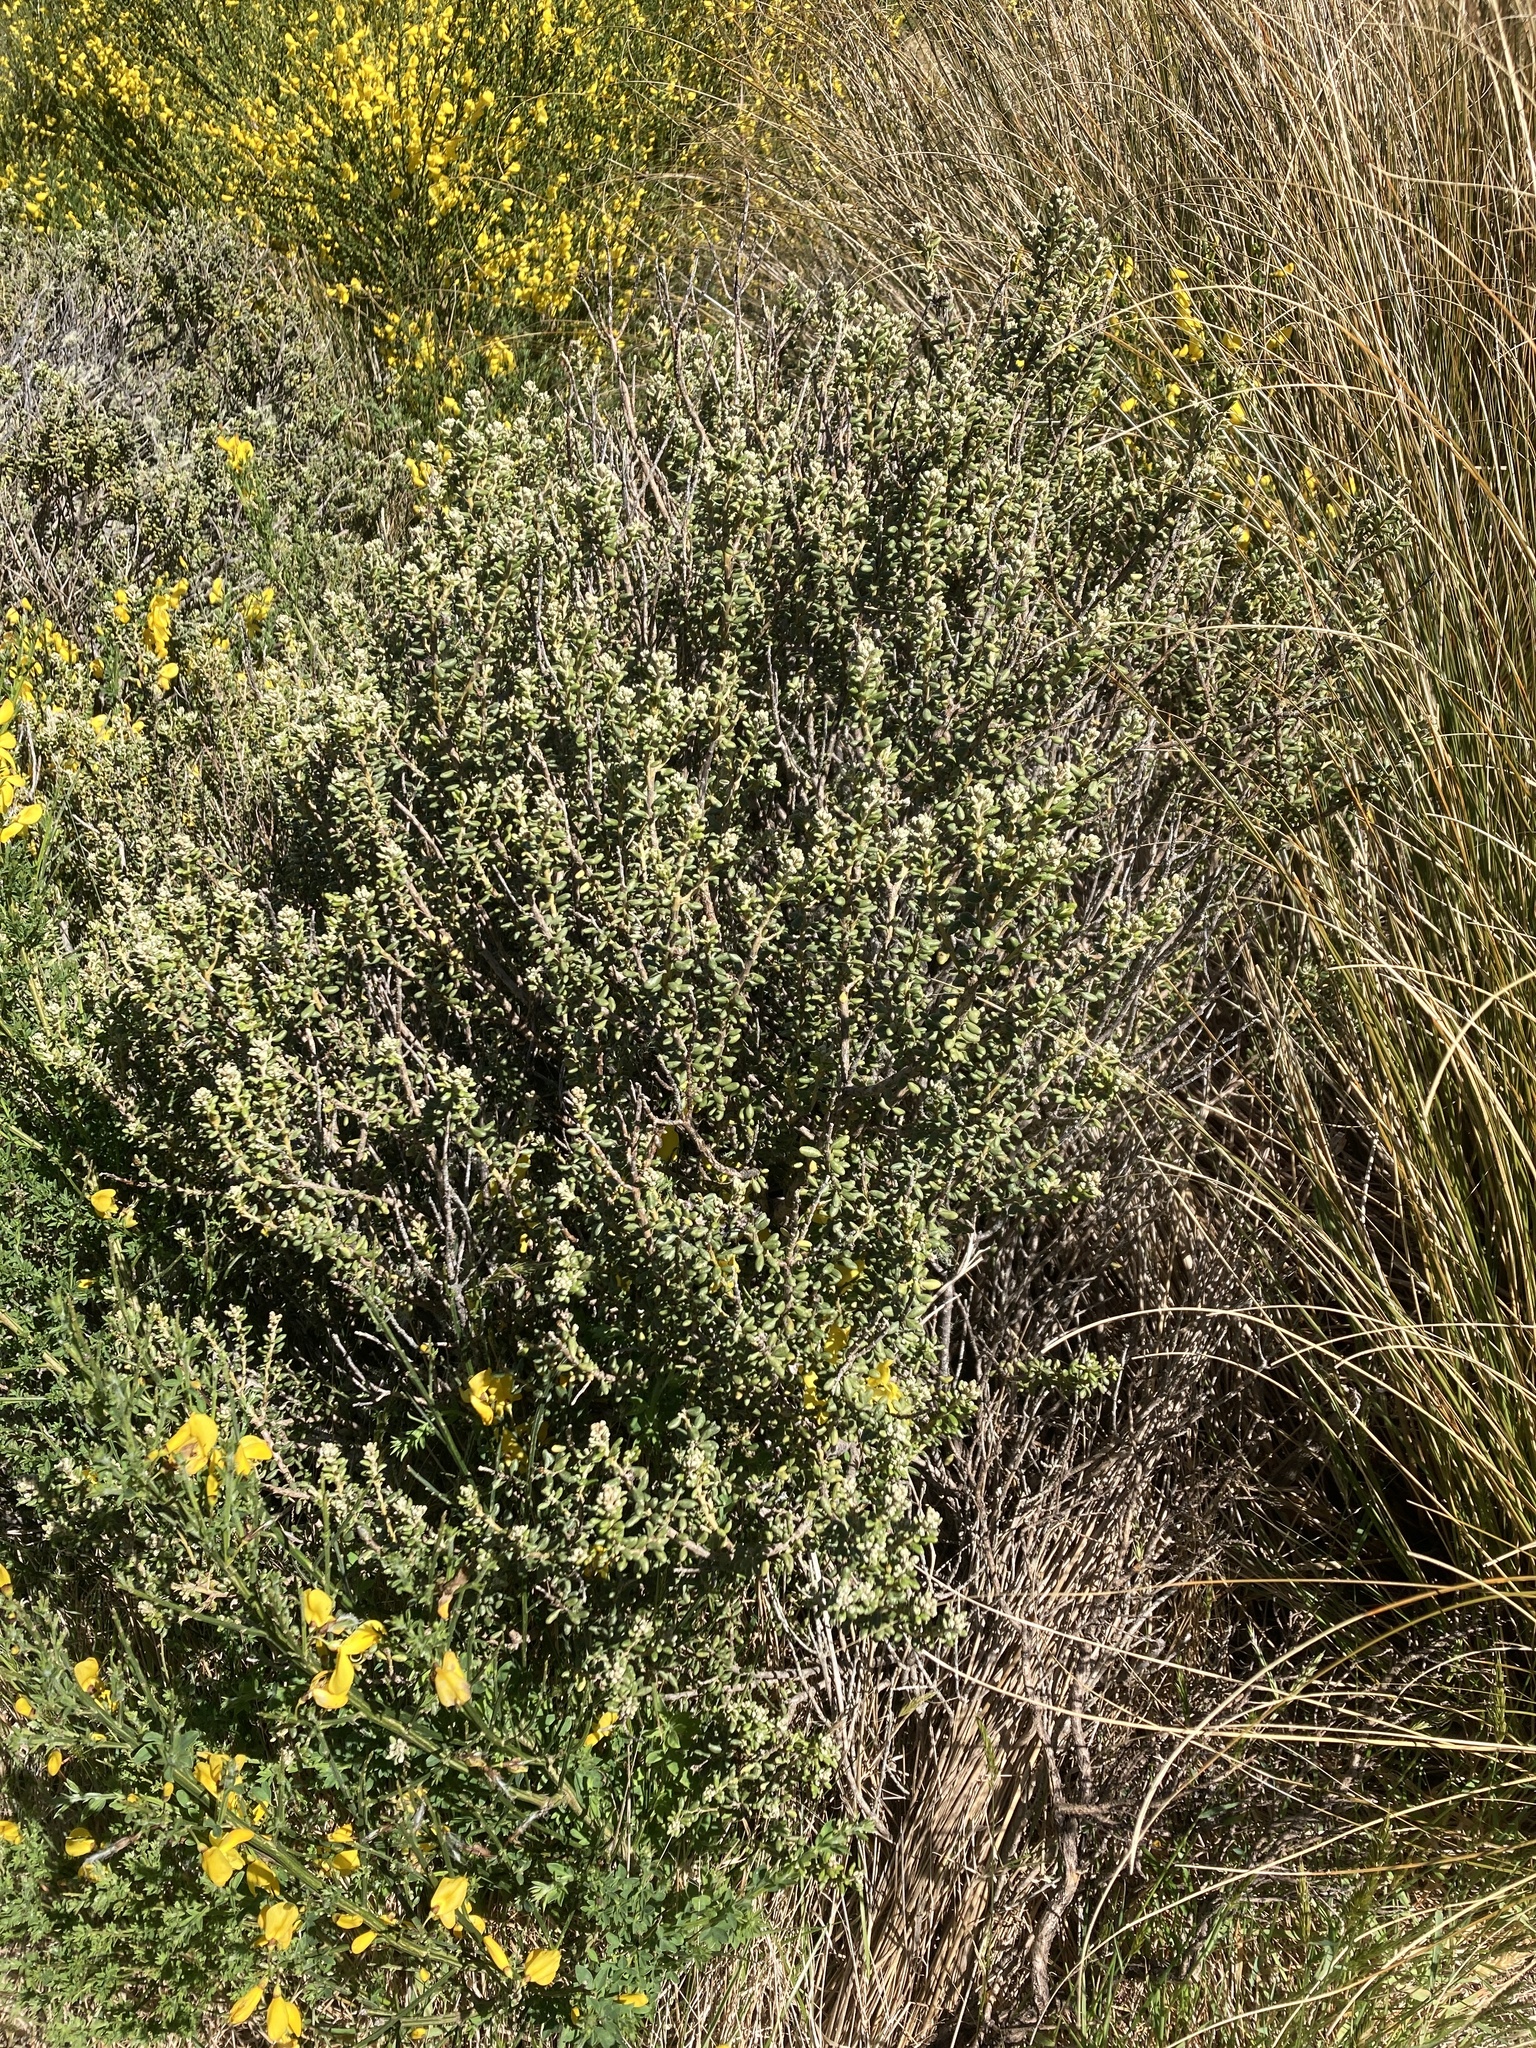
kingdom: Plantae
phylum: Tracheophyta
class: Magnoliopsida
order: Asterales
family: Asteraceae
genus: Olearia
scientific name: Olearia cymbifolia
